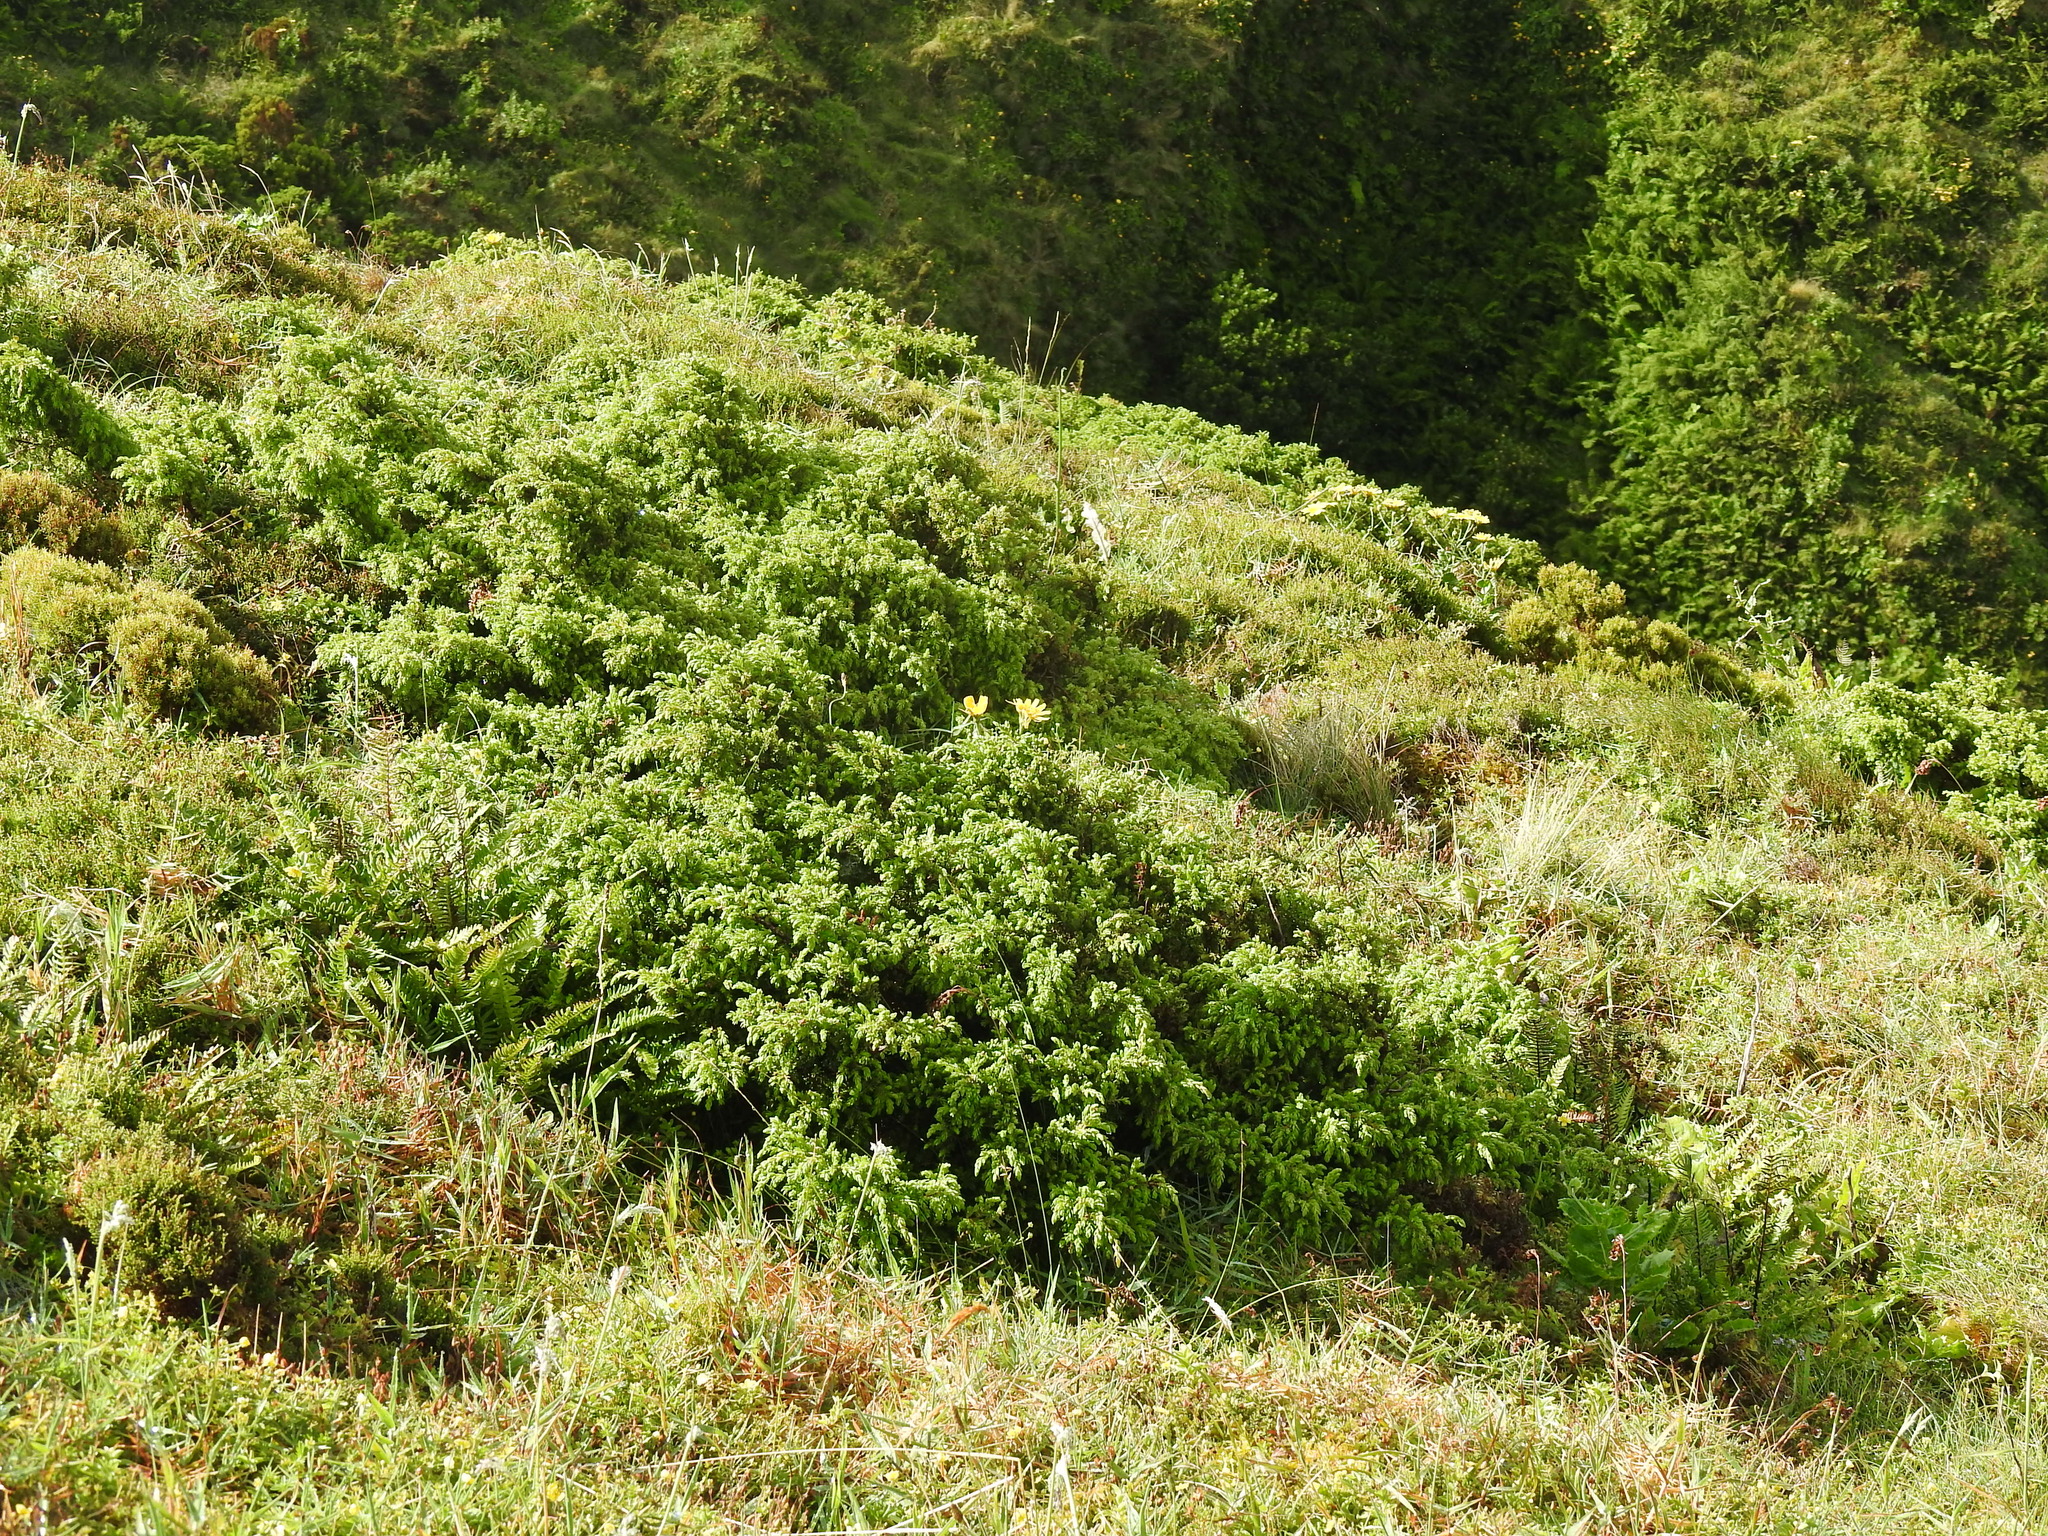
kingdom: Plantae
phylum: Tracheophyta
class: Pinopsida
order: Pinales
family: Cupressaceae
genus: Juniperus
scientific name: Juniperus brevifolia
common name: Azores juniper
